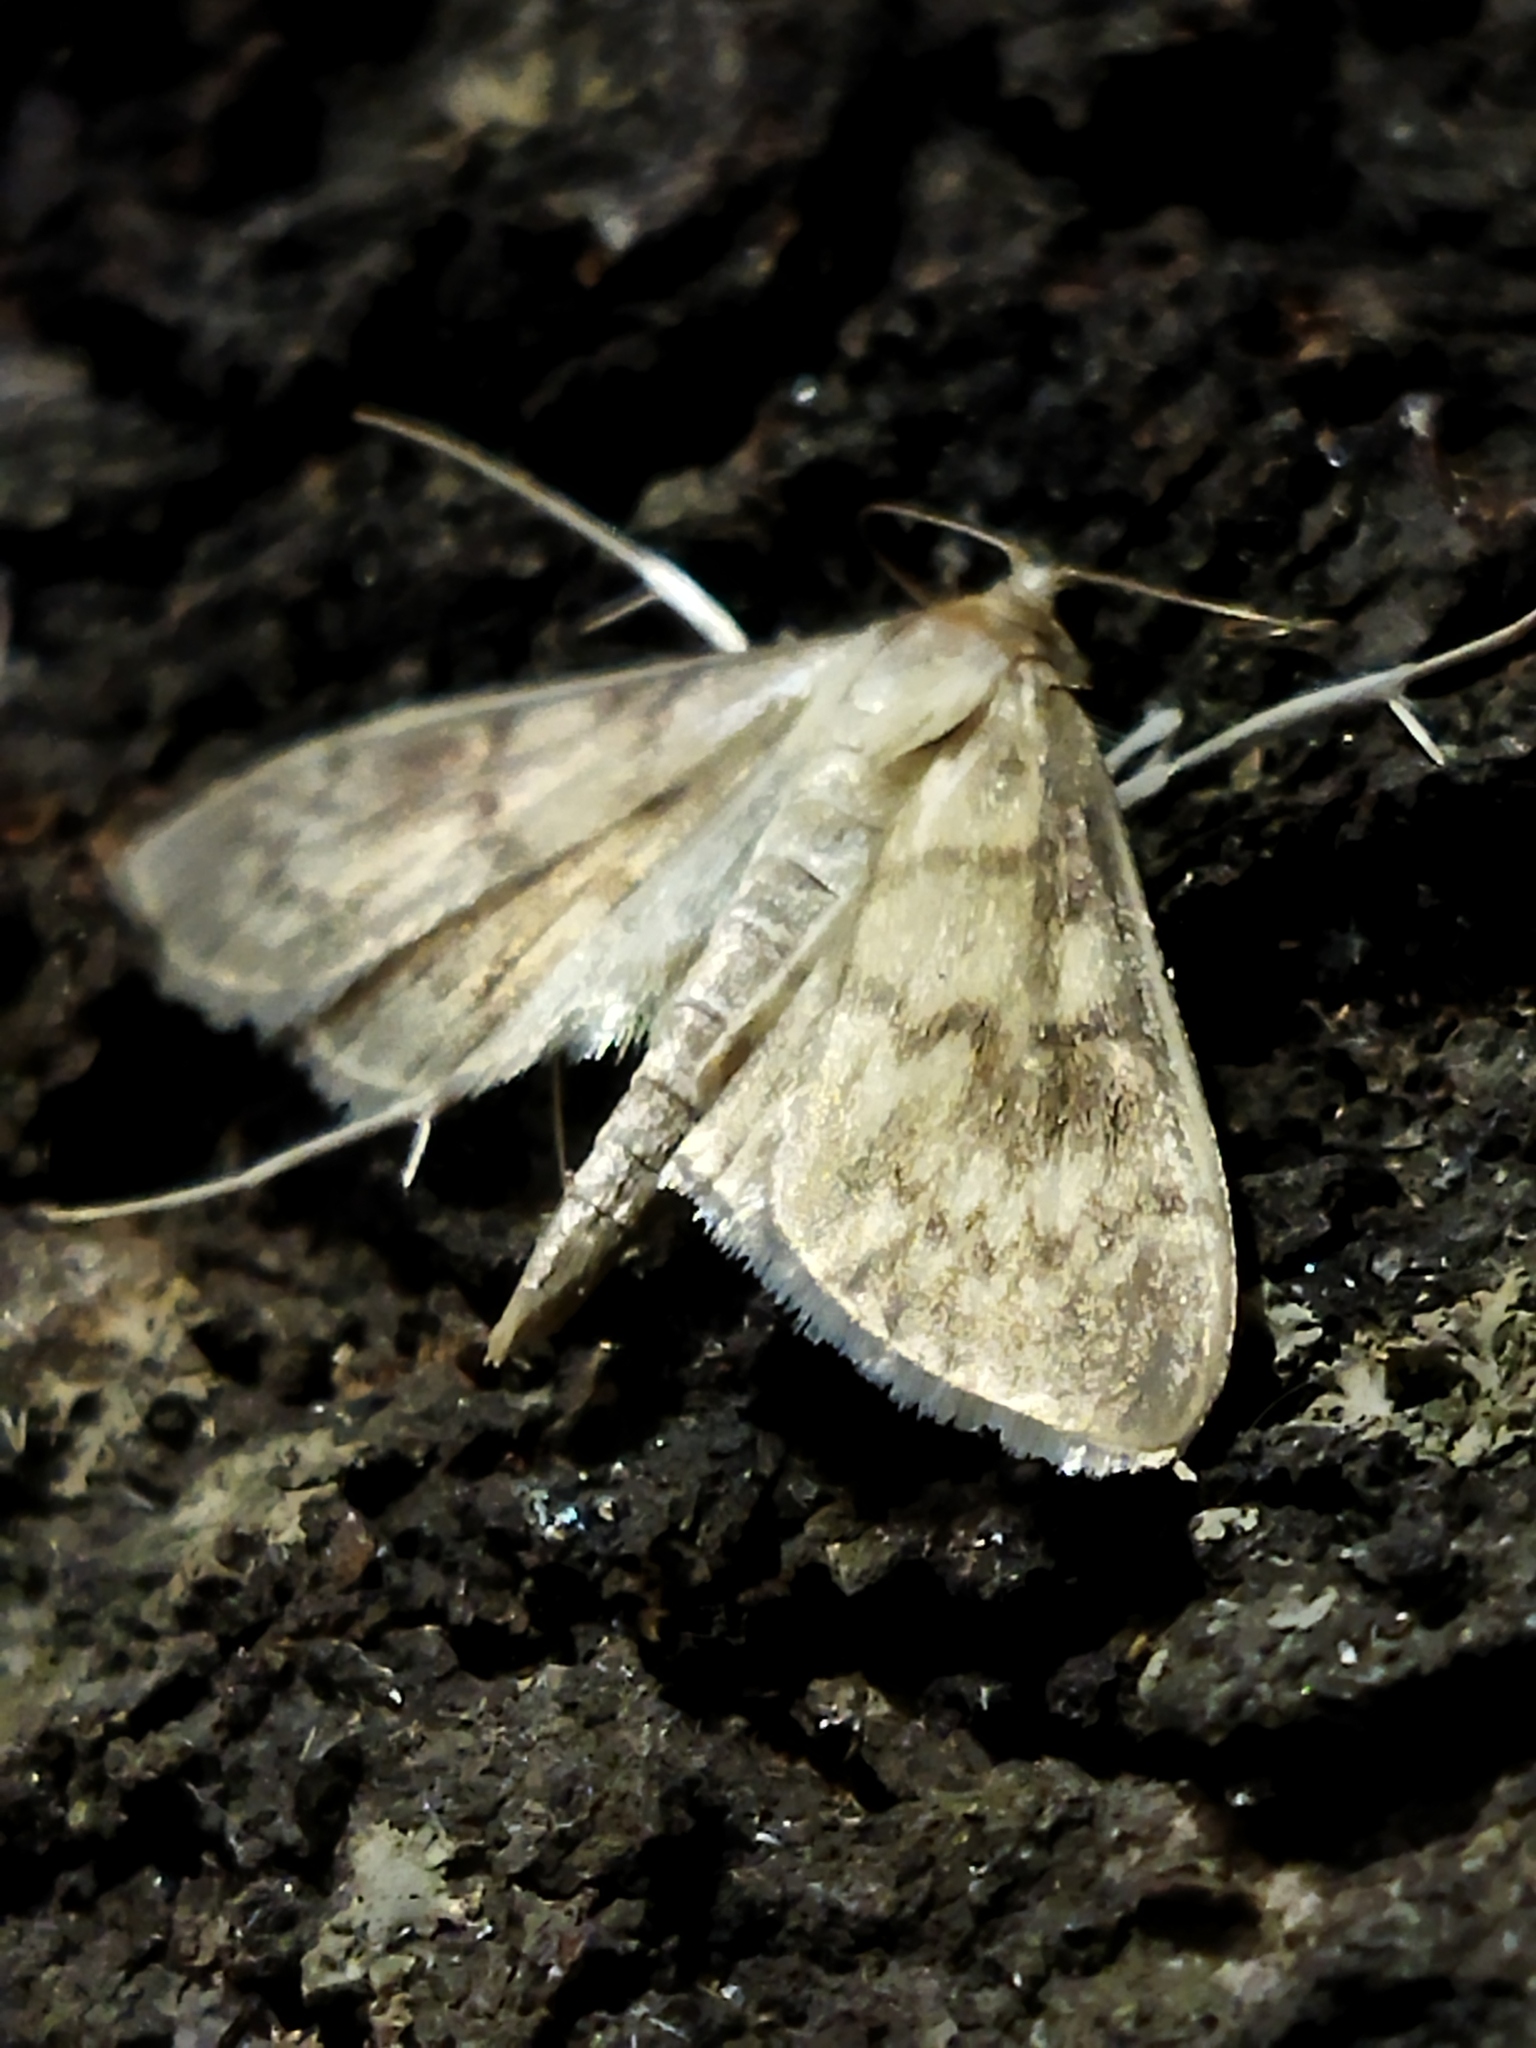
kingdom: Animalia
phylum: Arthropoda
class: Insecta
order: Lepidoptera
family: Crambidae
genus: Patania
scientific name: Patania ruralis
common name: Mother of pearl
